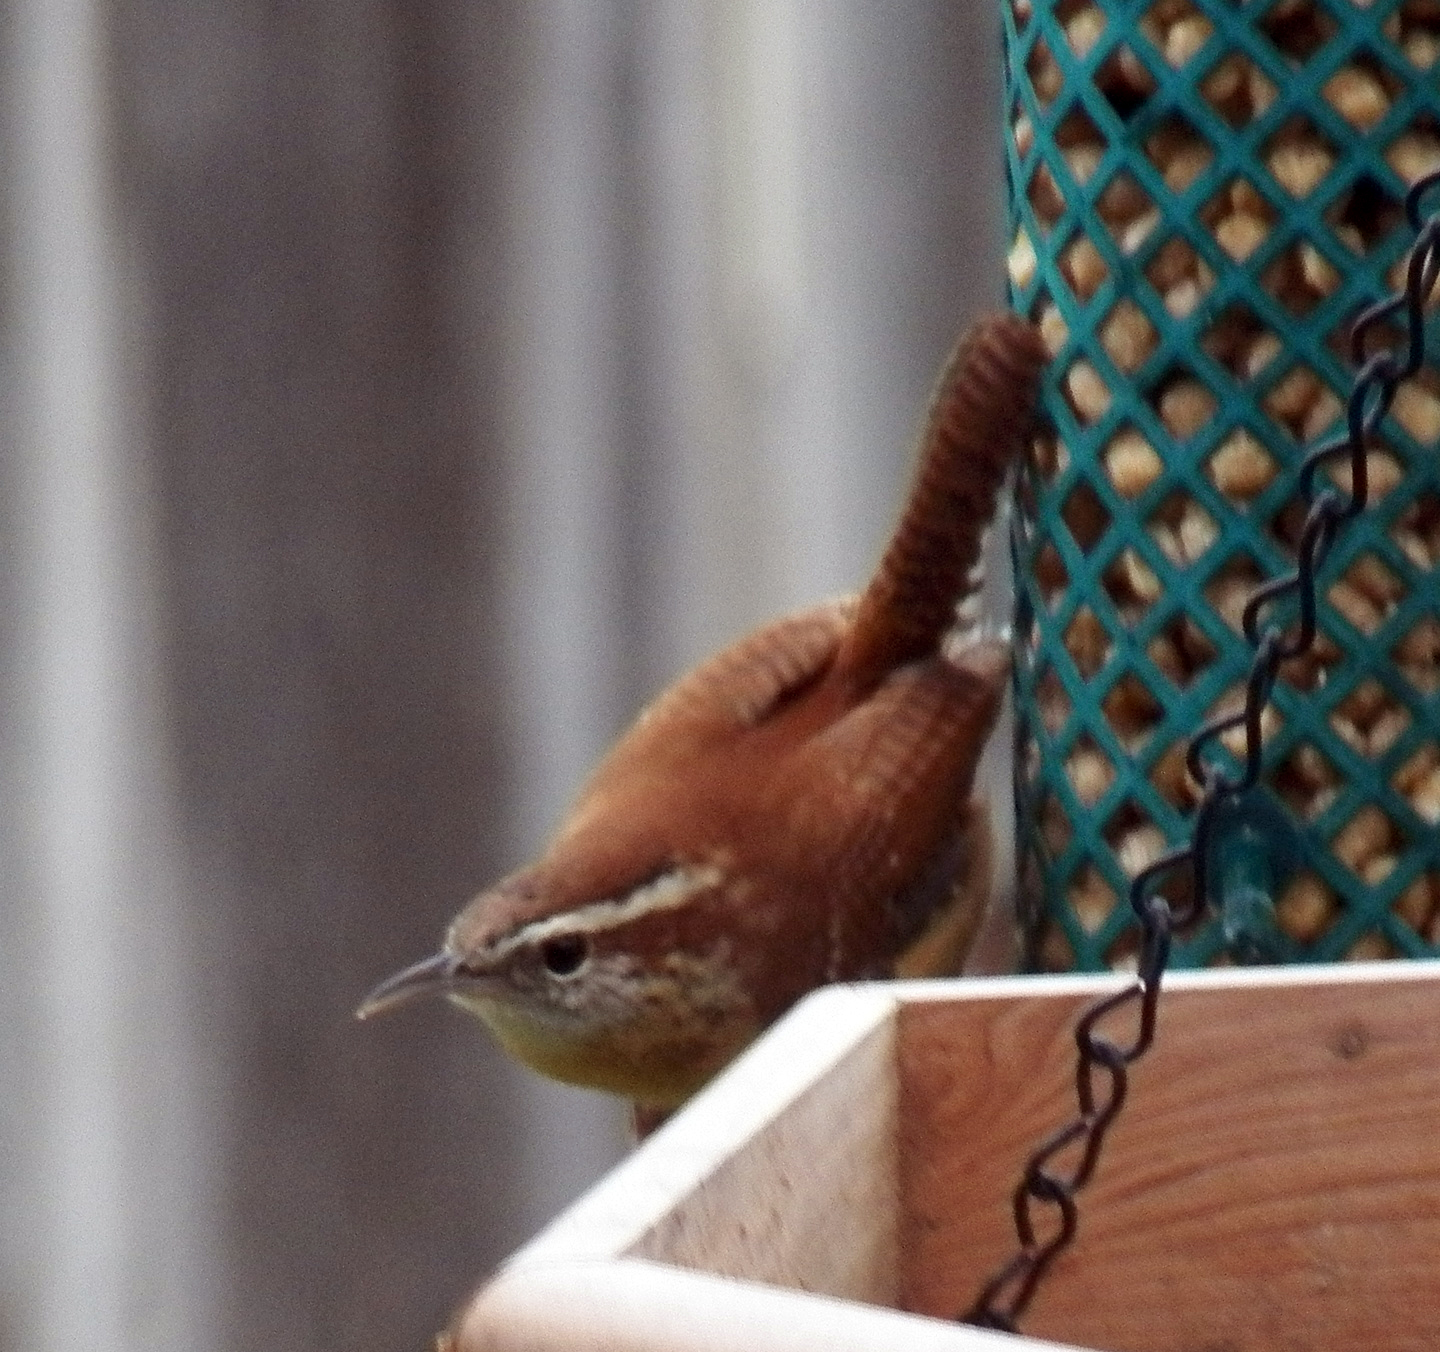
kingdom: Animalia
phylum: Chordata
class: Aves
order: Passeriformes
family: Troglodytidae
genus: Thryothorus
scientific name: Thryothorus ludovicianus
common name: Carolina wren
